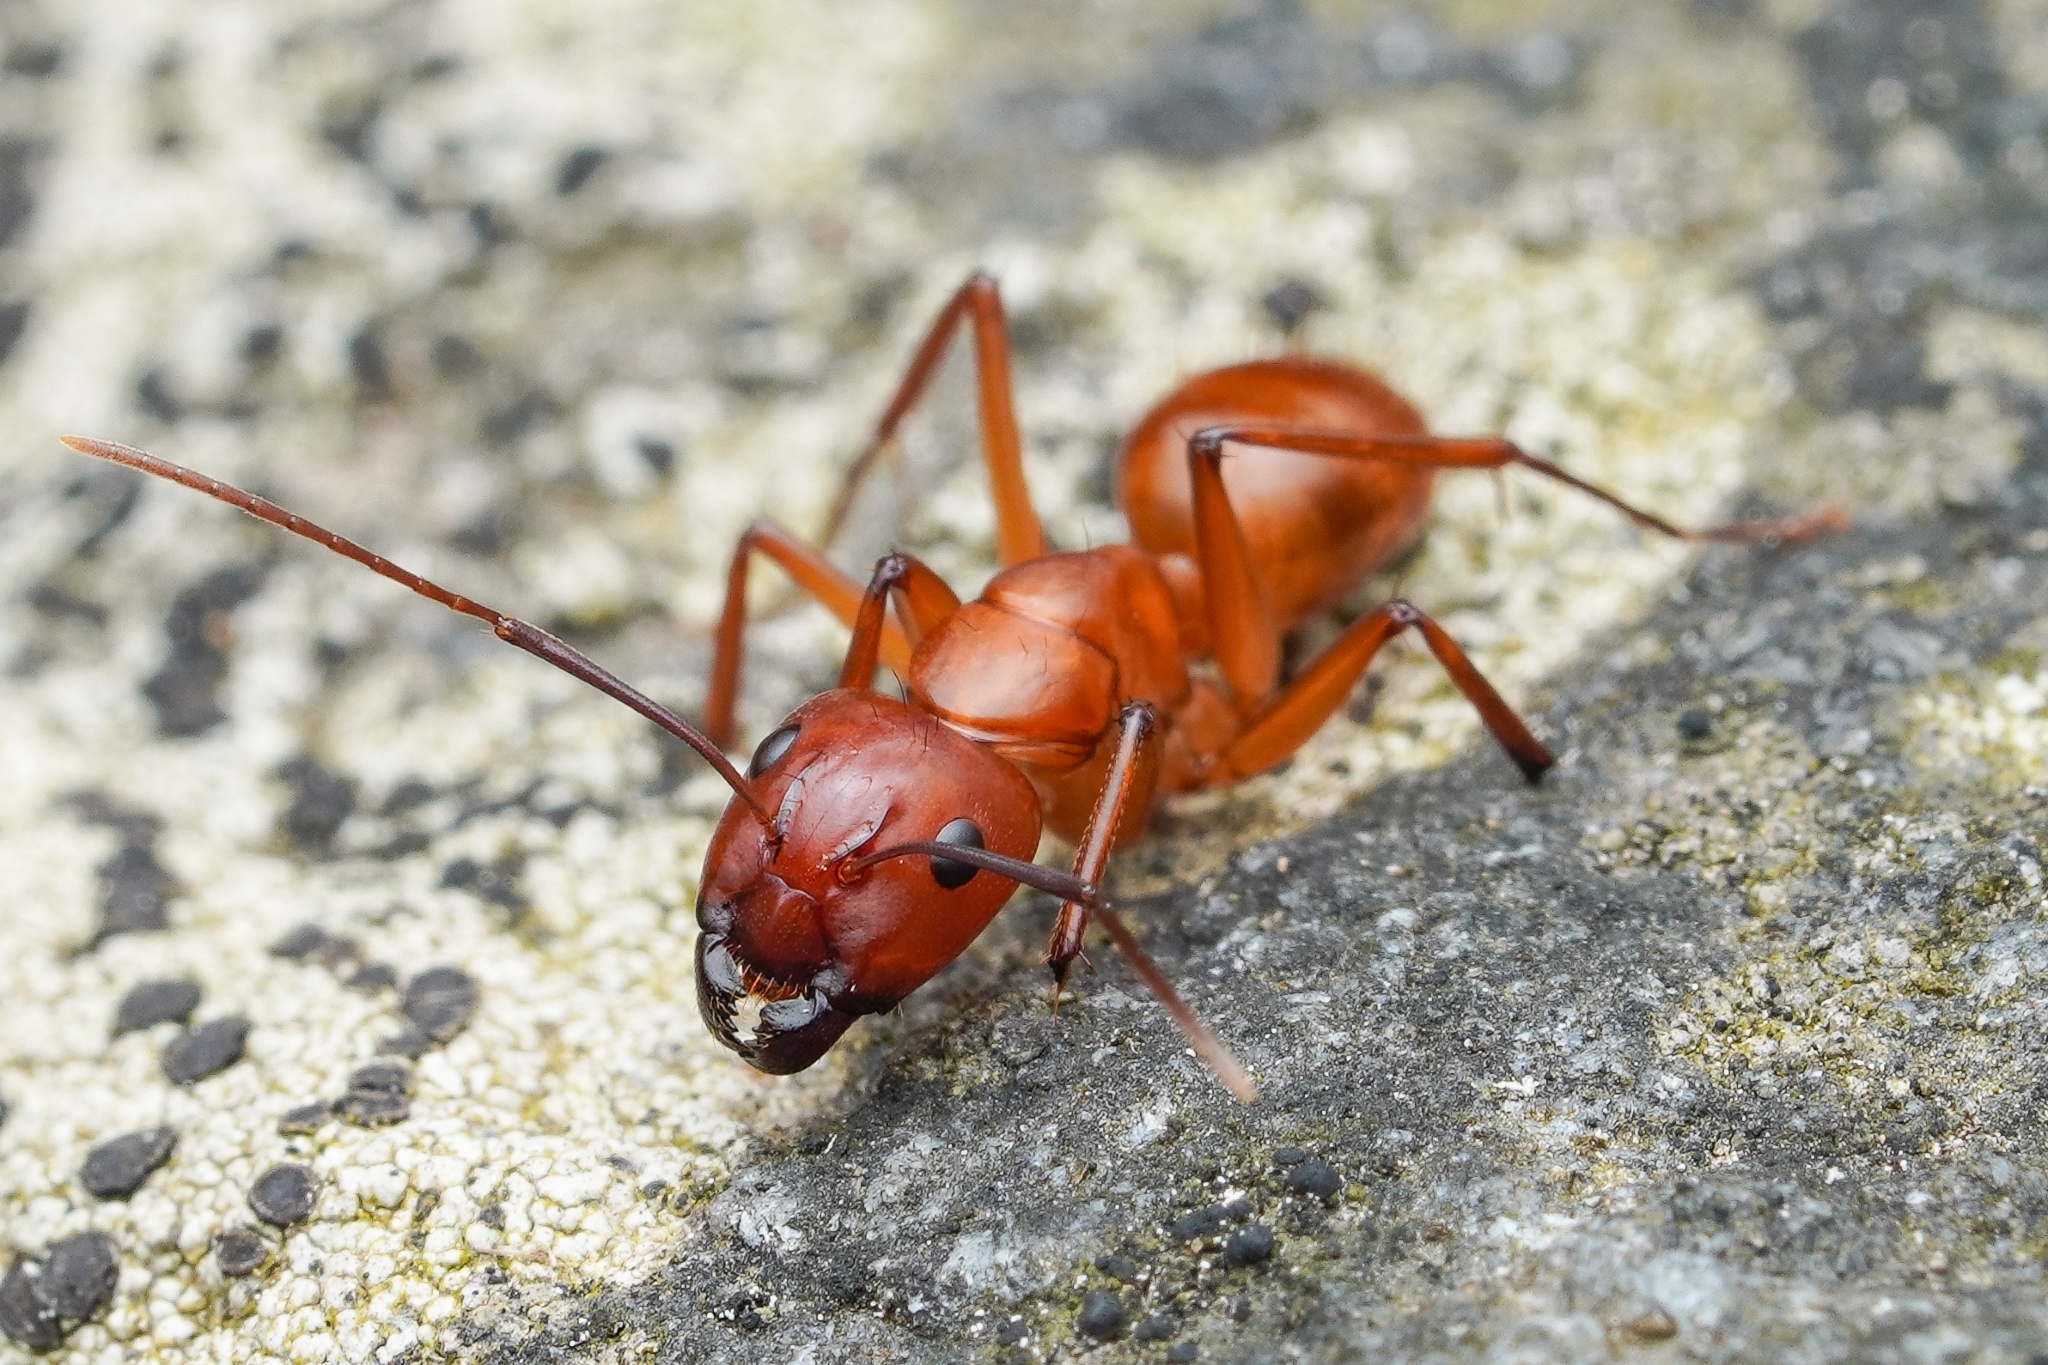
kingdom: Animalia
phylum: Arthropoda
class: Insecta
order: Hymenoptera
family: Formicidae
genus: Camponotus
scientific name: Camponotus castaneus
